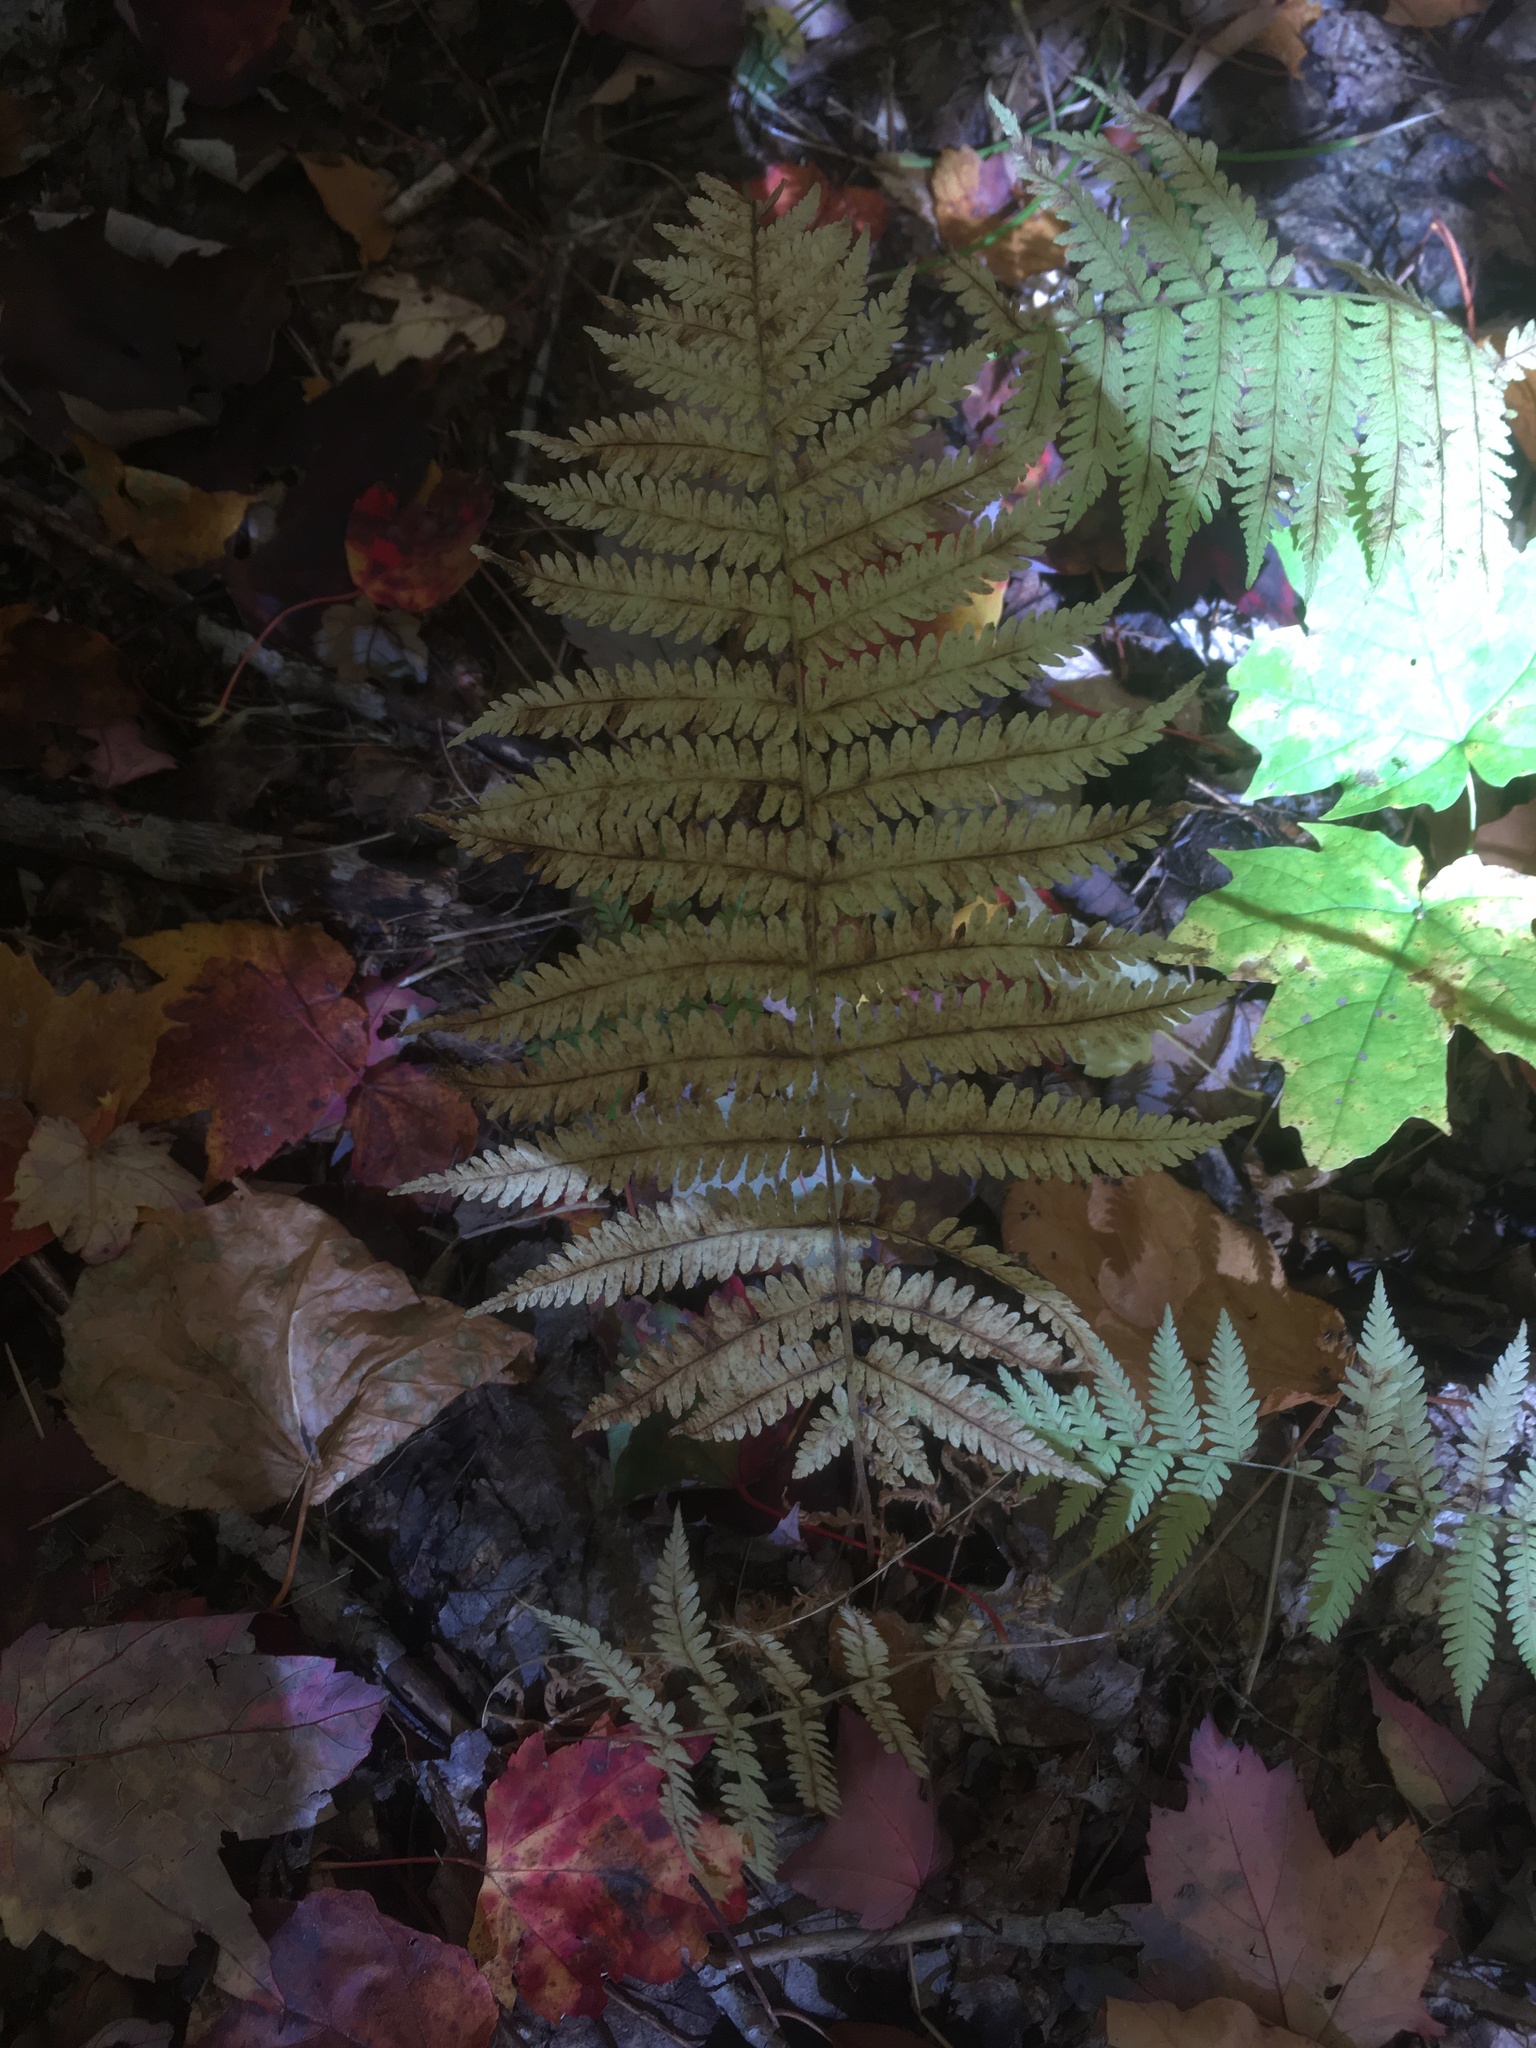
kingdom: Plantae
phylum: Tracheophyta
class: Polypodiopsida
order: Polypodiales
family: Thelypteridaceae
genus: Amauropelta
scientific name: Amauropelta noveboracensis
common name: New york fern
